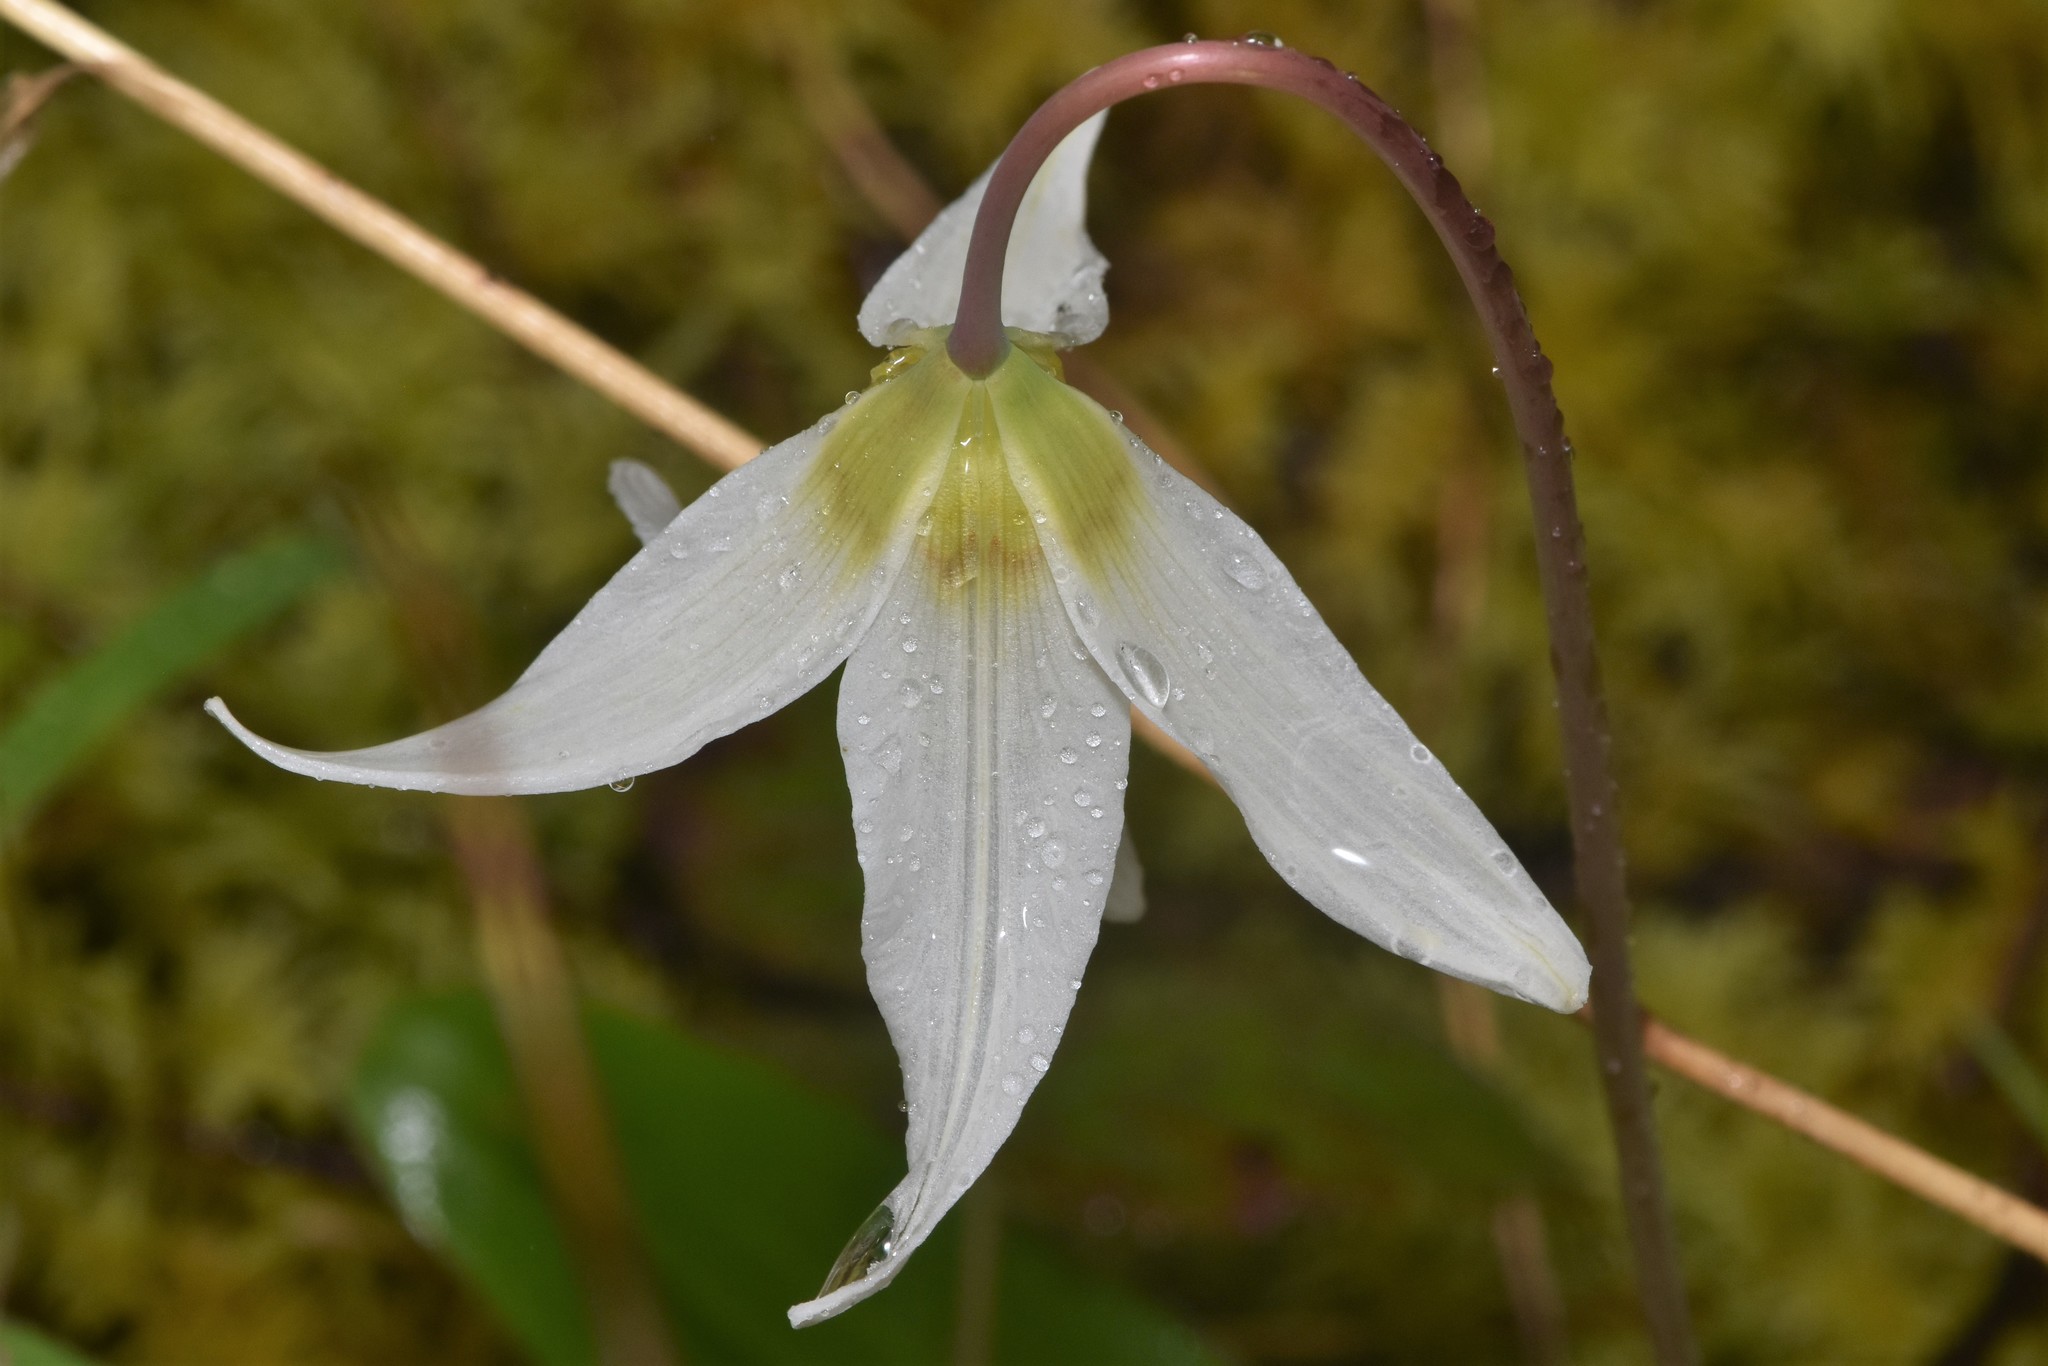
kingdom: Plantae
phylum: Tracheophyta
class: Liliopsida
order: Liliales
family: Liliaceae
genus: Erythronium
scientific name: Erythronium oregonum
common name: Giant adder's-tongue
